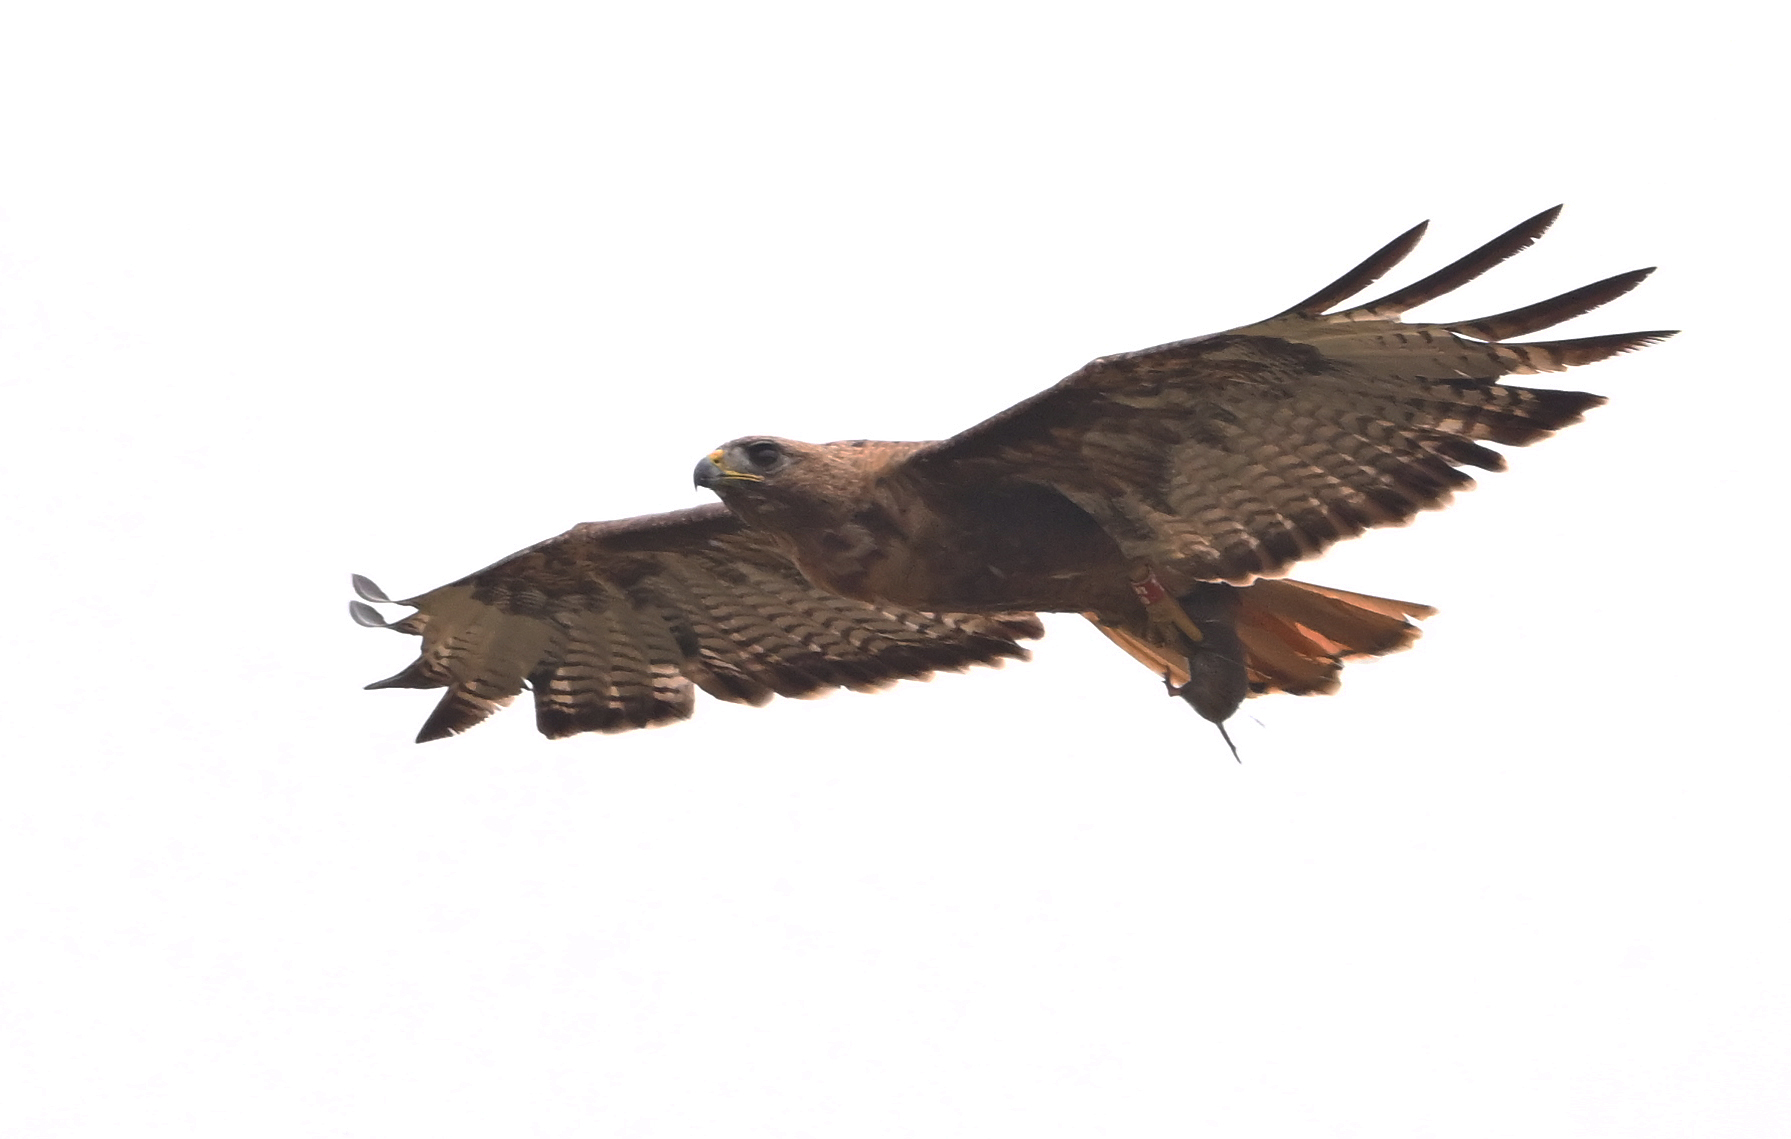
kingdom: Animalia
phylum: Chordata
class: Aves
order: Accipitriformes
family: Accipitridae
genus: Buteo
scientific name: Buteo jamaicensis
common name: Red-tailed hawk
